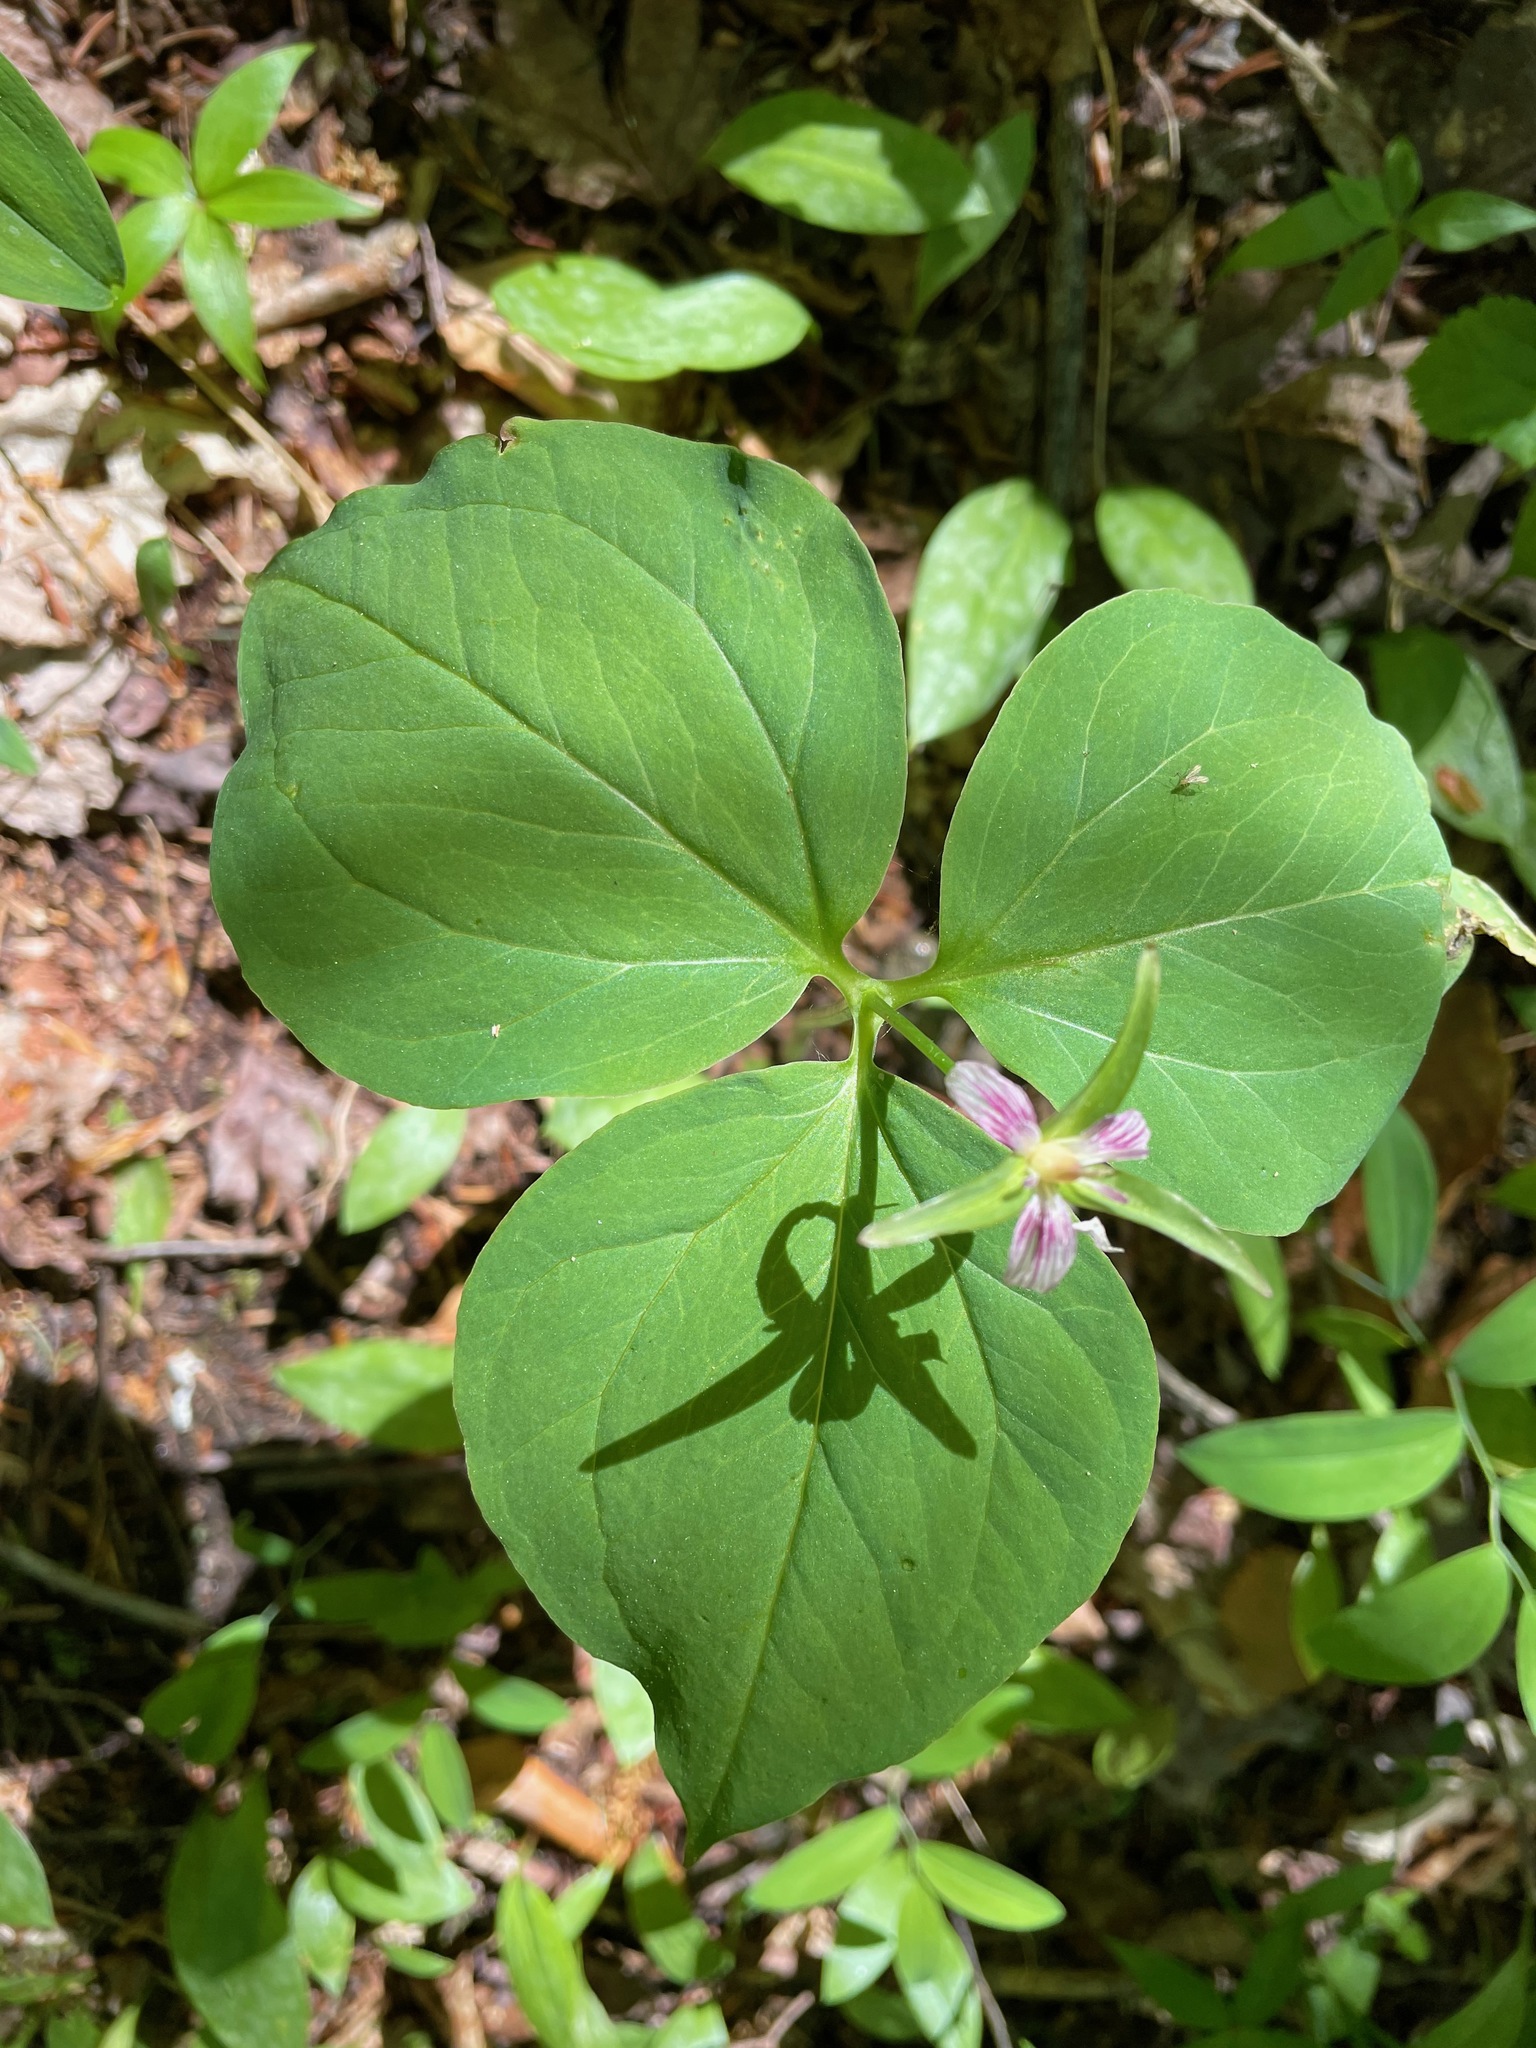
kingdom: Plantae
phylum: Tracheophyta
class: Liliopsida
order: Liliales
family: Melanthiaceae
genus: Trillium
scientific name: Trillium undulatum
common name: Paint trillium
